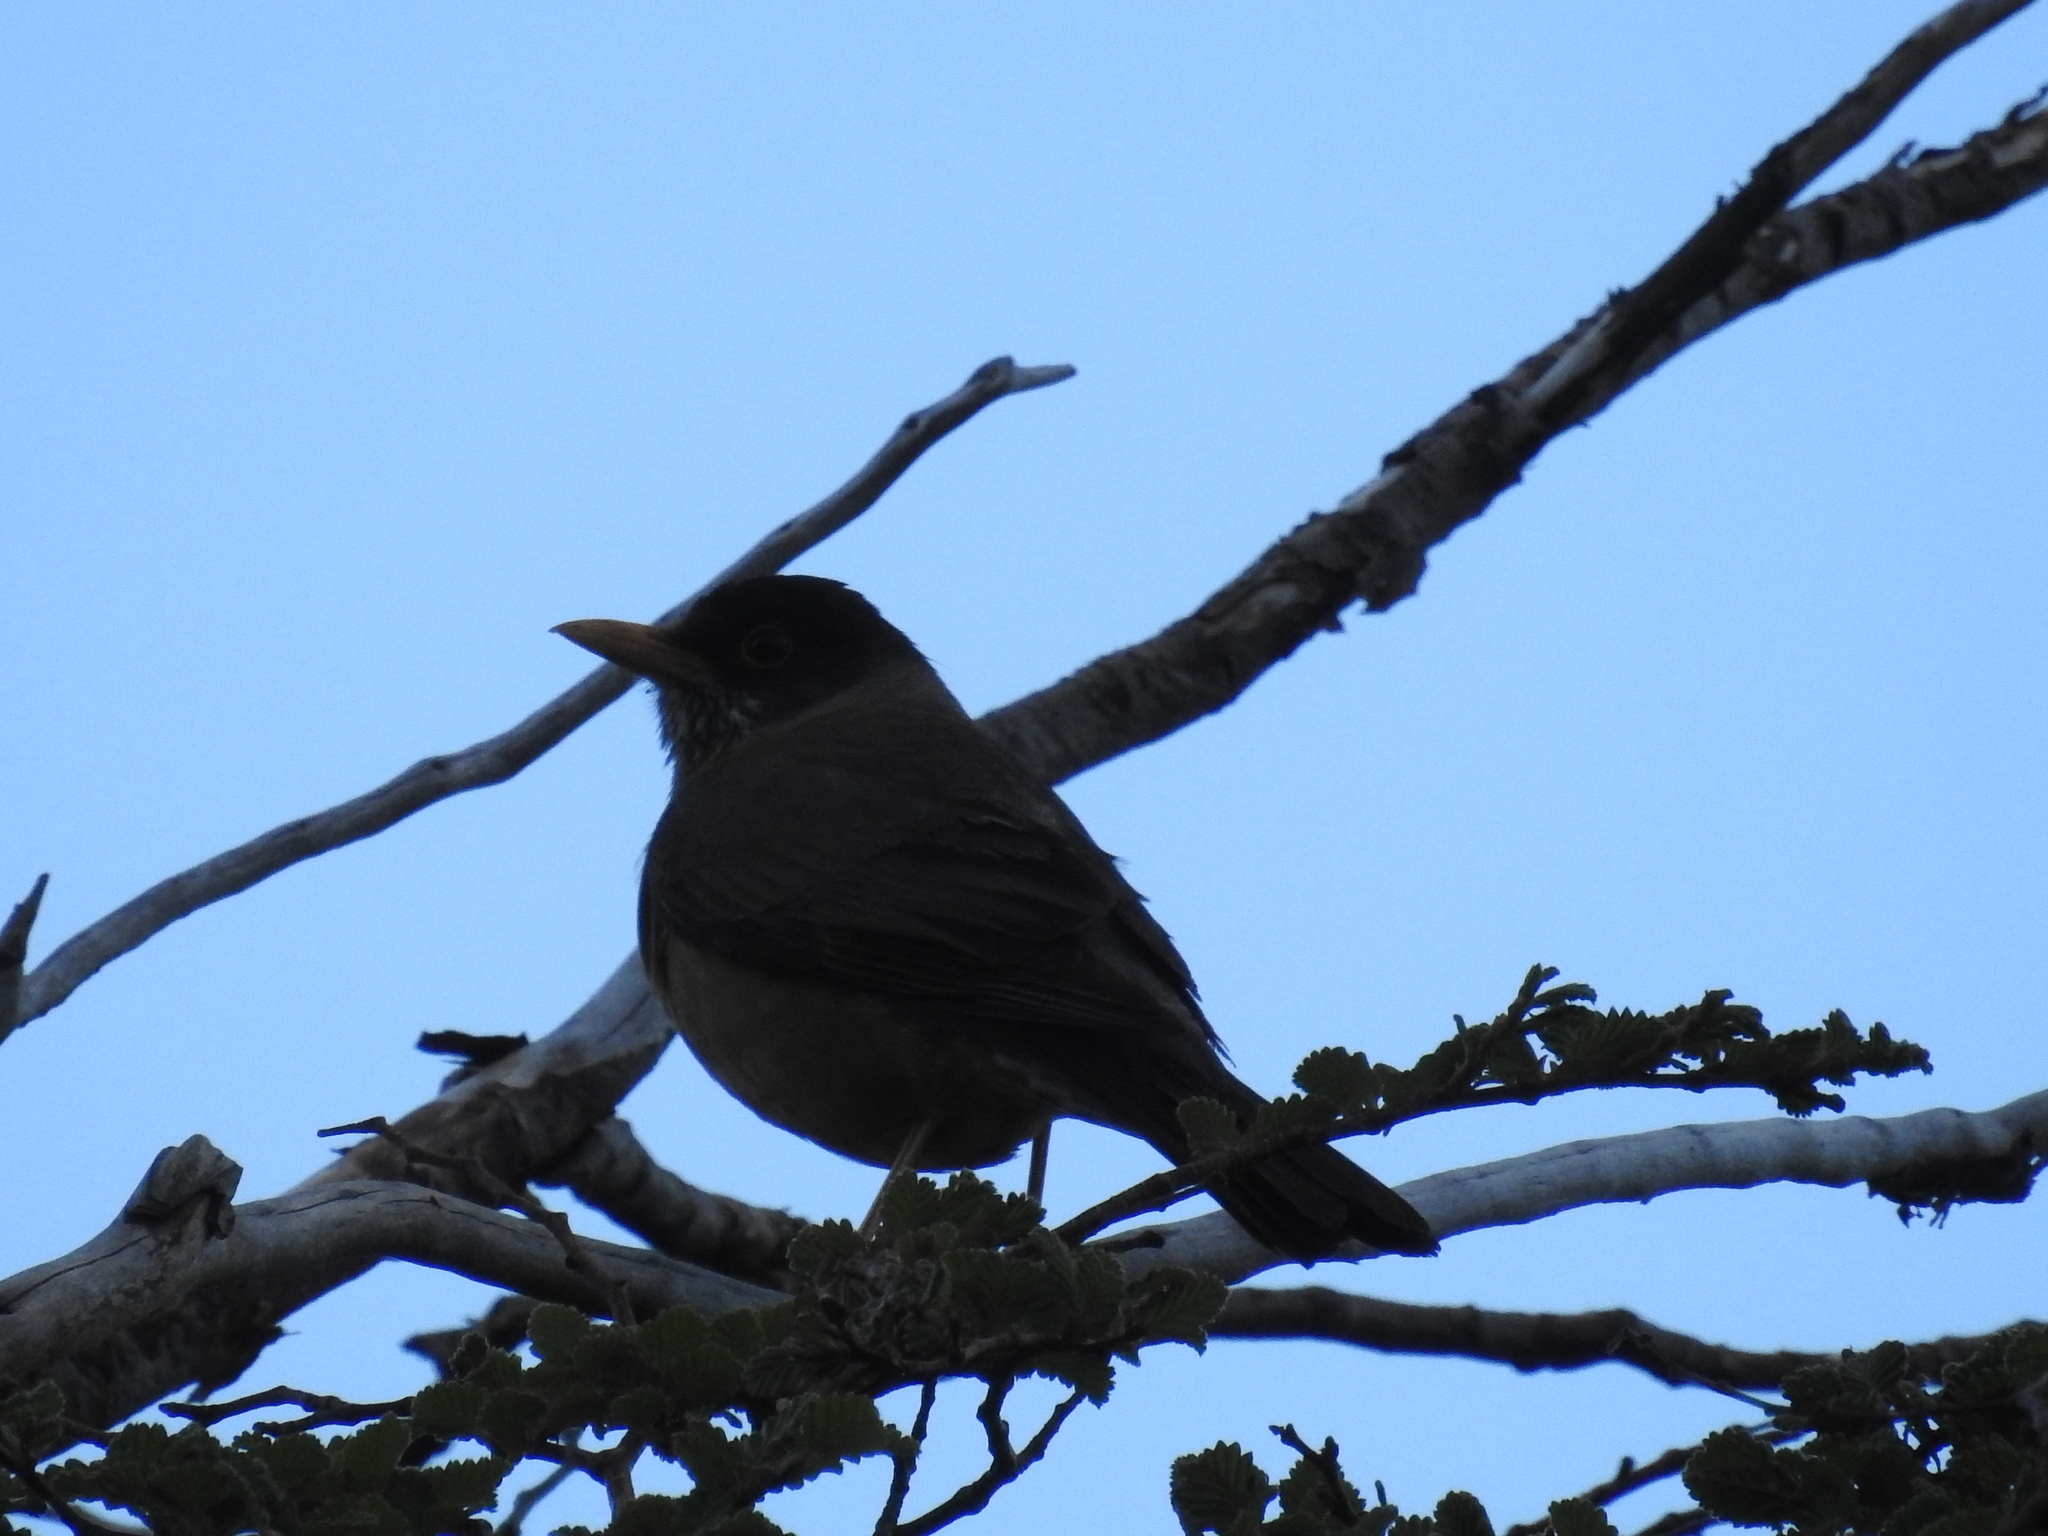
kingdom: Animalia
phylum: Chordata
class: Aves
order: Passeriformes
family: Turdidae
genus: Turdus
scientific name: Turdus falcklandii
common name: Austral thrush
